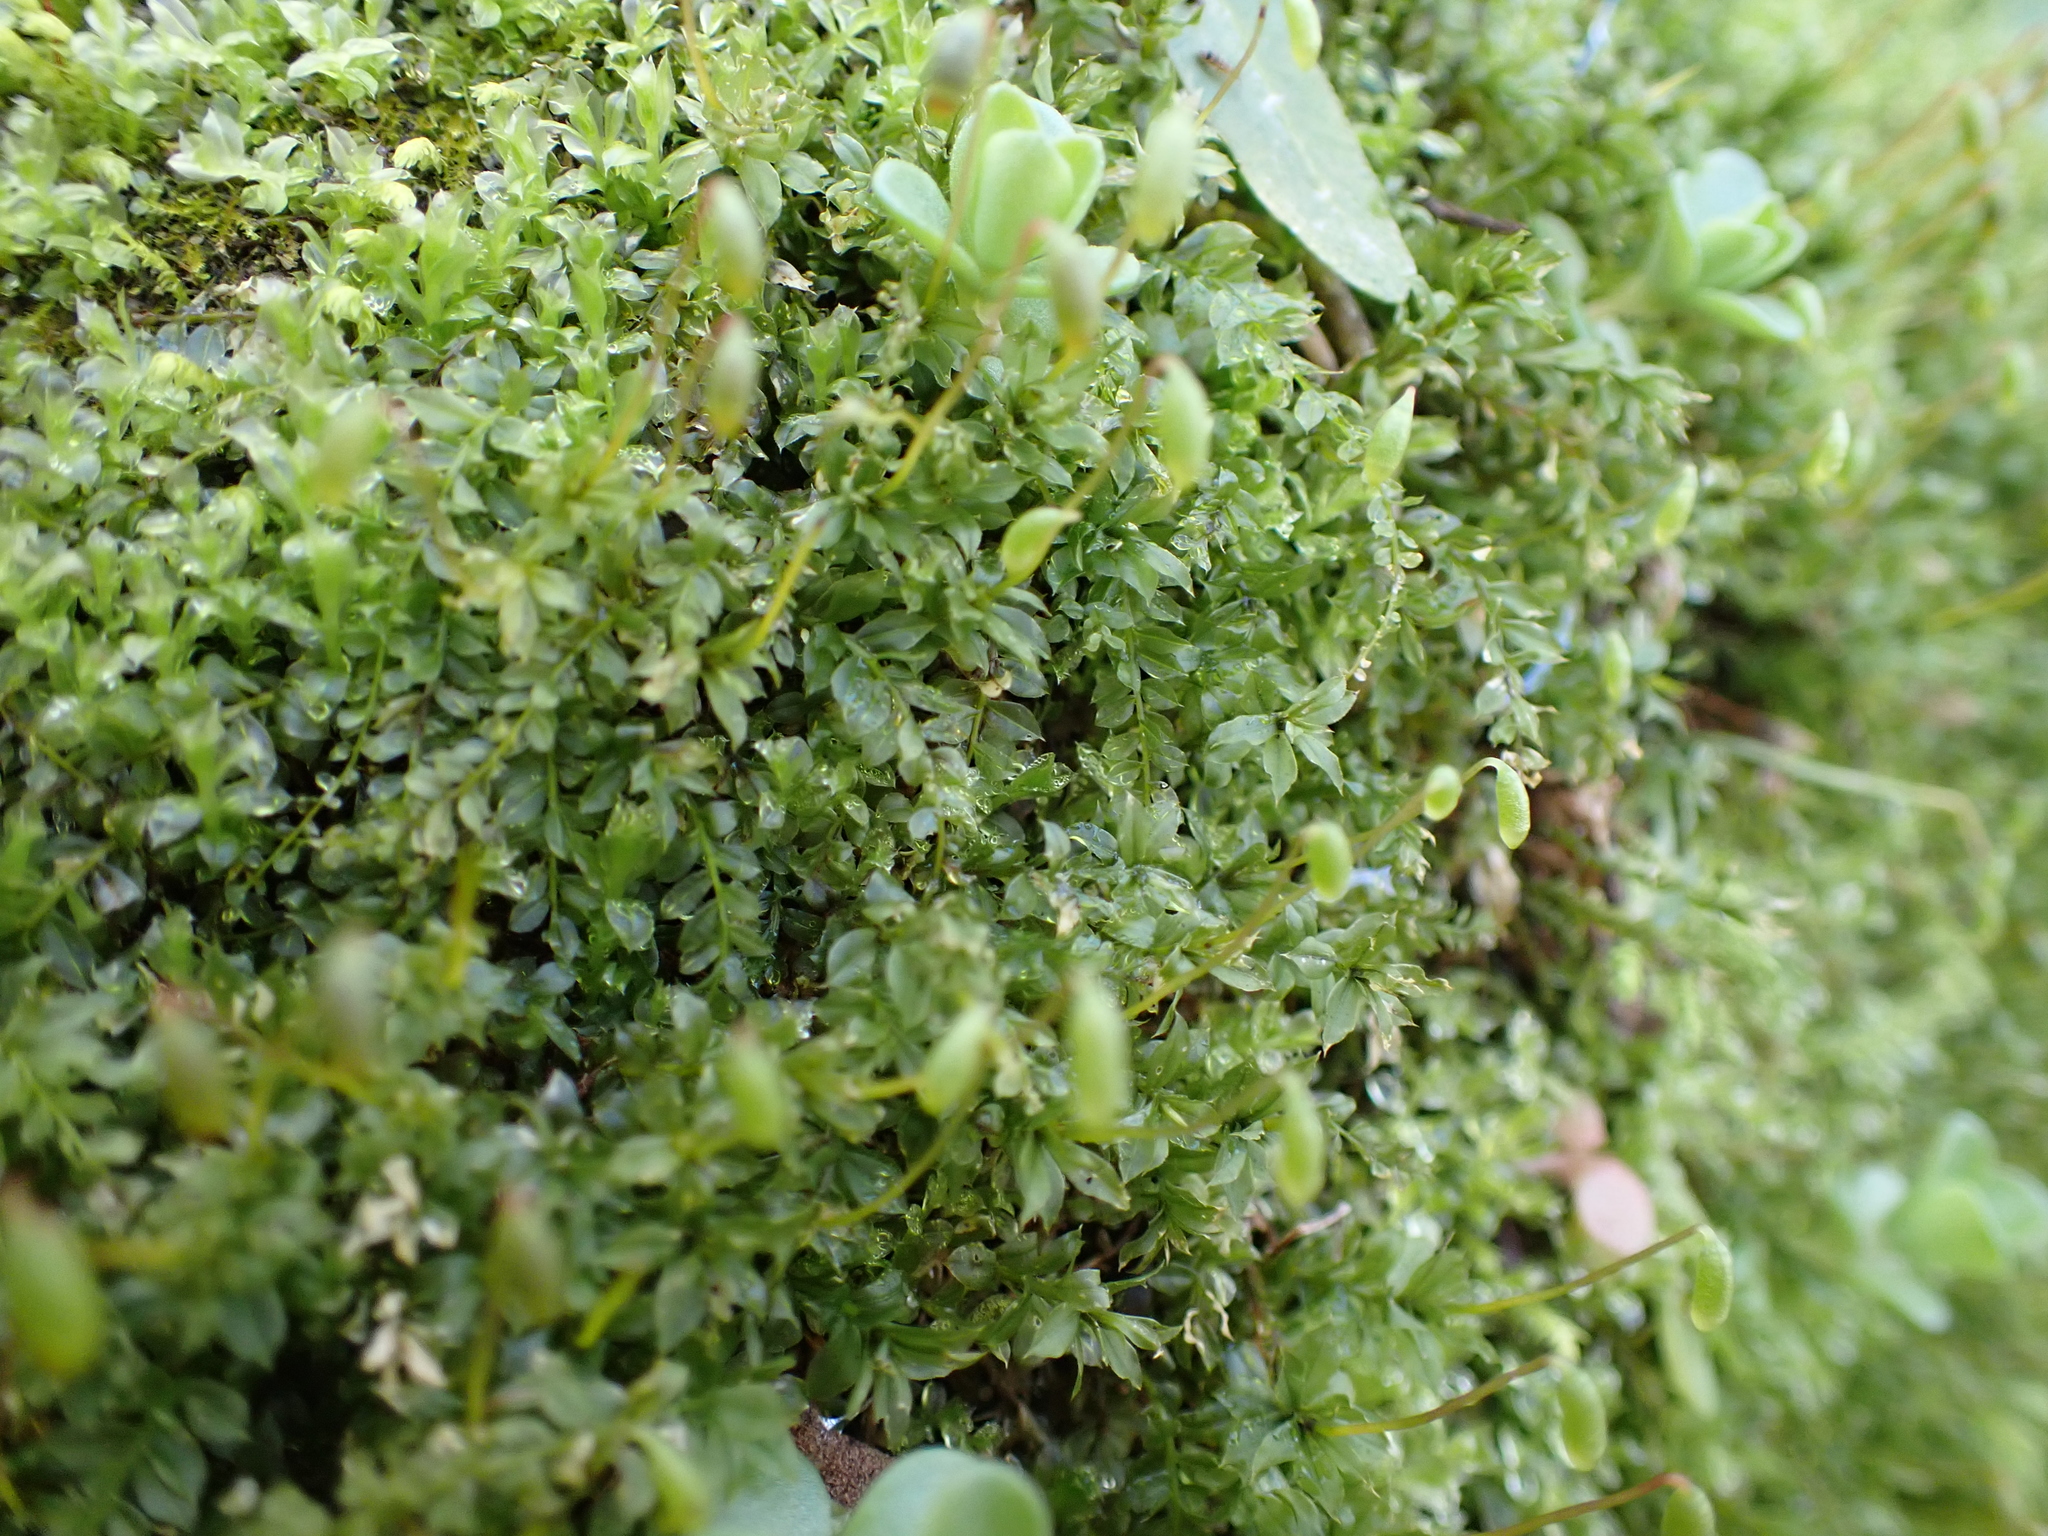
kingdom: Plantae
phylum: Bryophyta
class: Bryopsida
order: Bryales
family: Mniaceae
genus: Plagiomnium
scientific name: Plagiomnium cuspidatum
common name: Woodsy leafy moss
